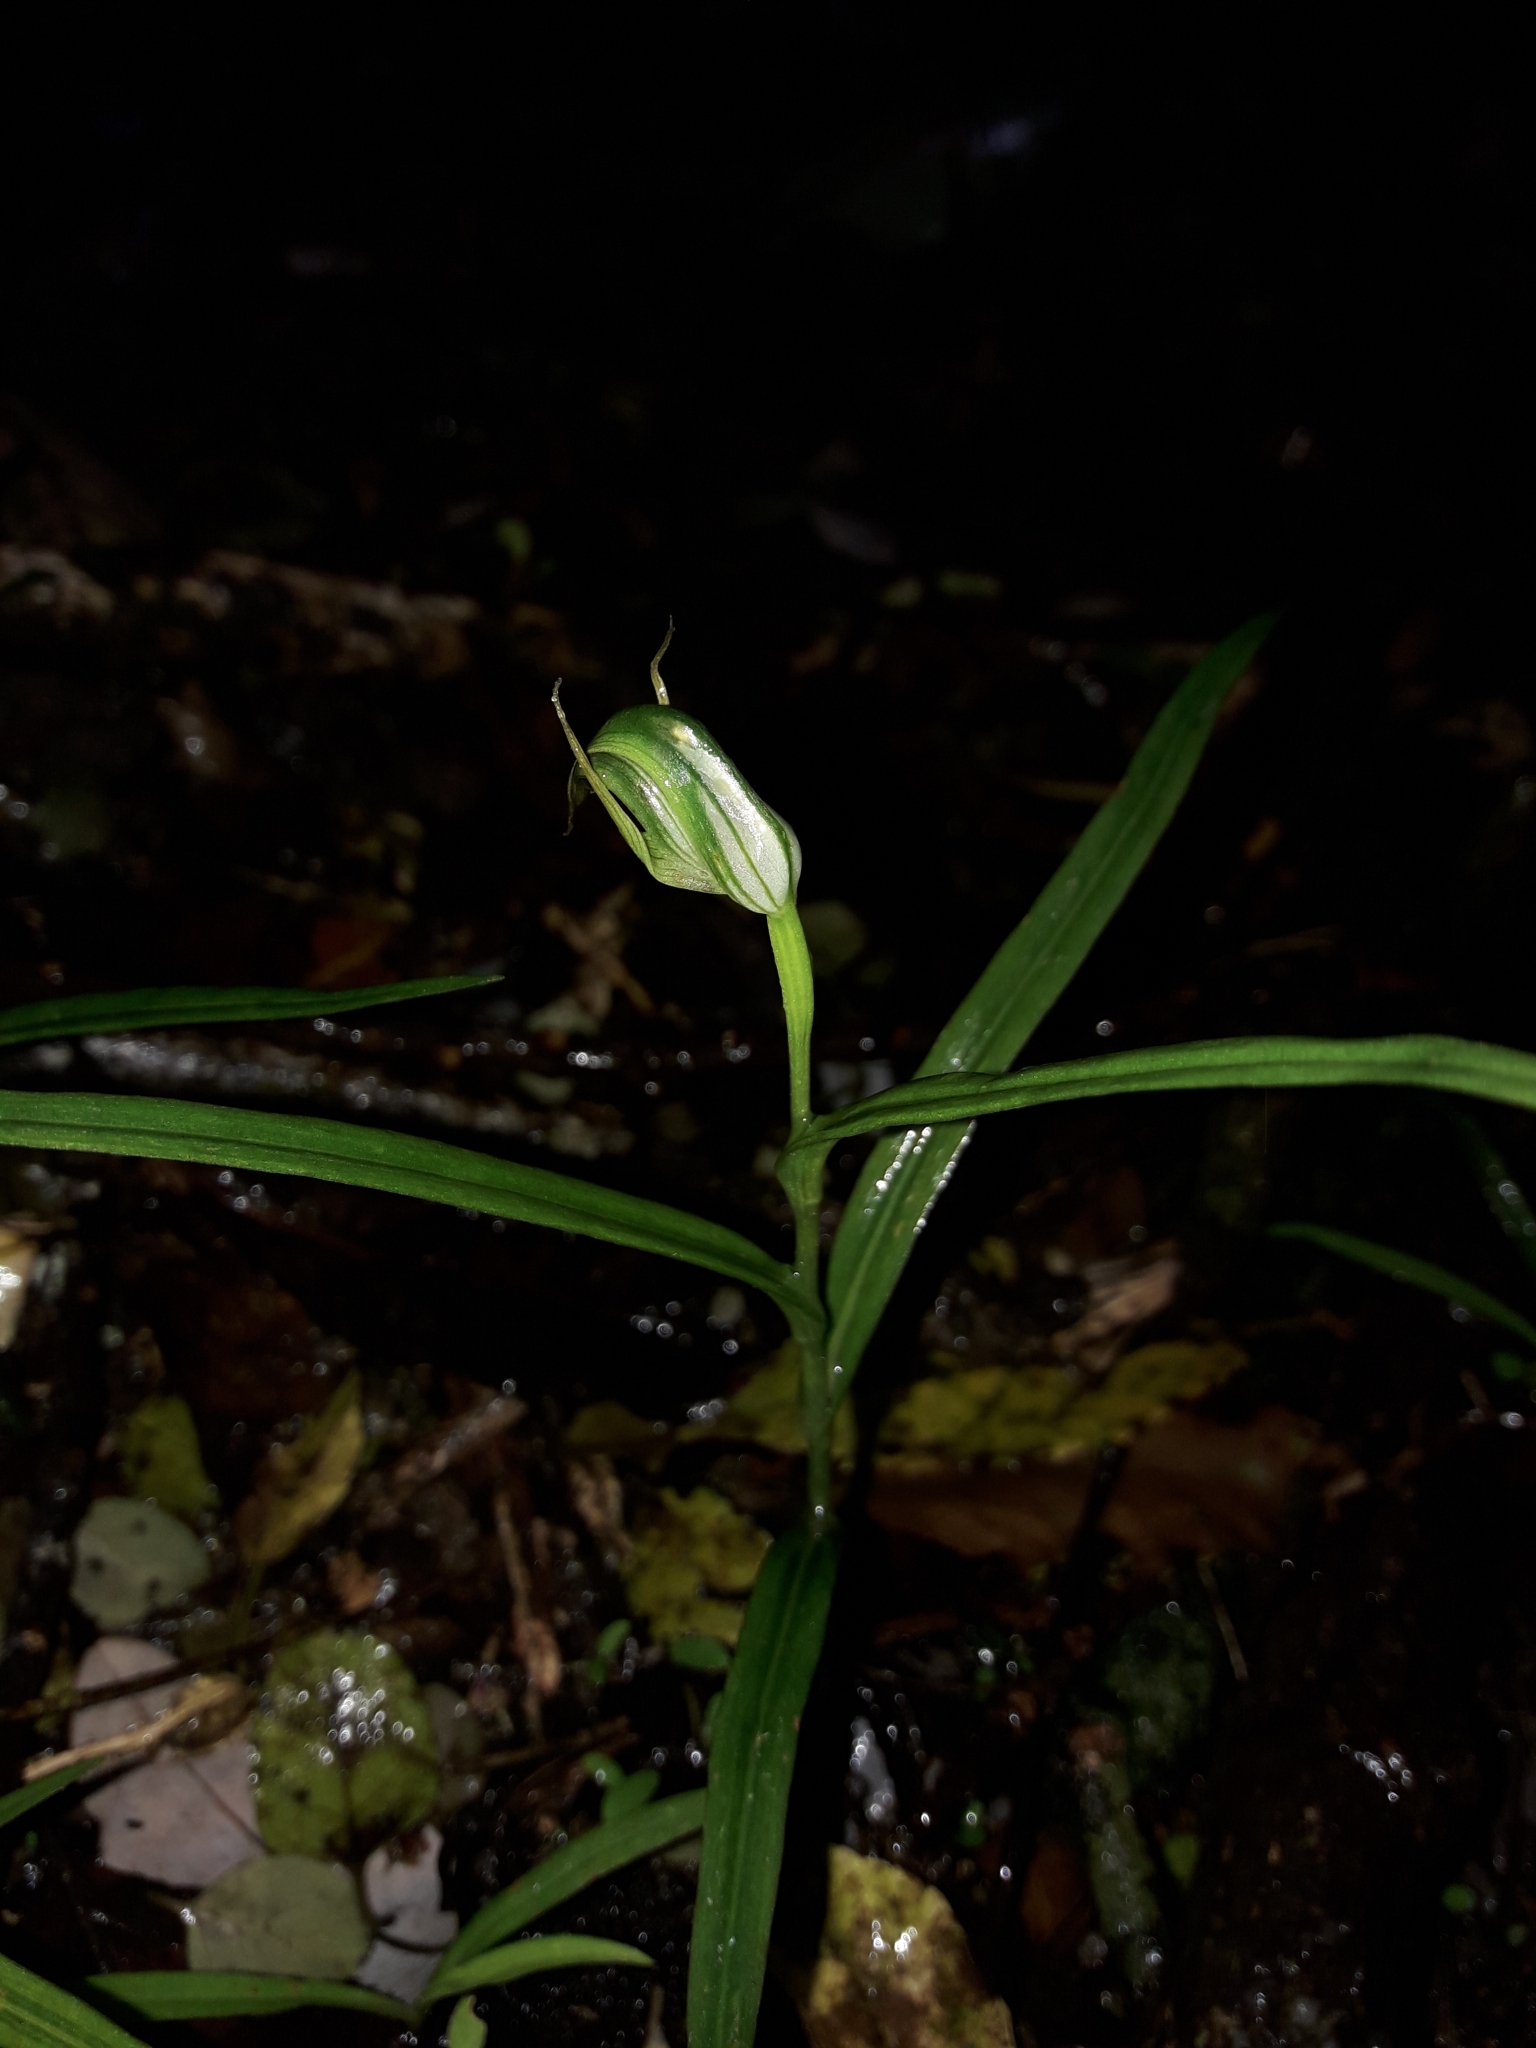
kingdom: Plantae
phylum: Tracheophyta
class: Liliopsida
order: Asparagales
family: Orchidaceae
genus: Pterostylis
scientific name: Pterostylis graminea
